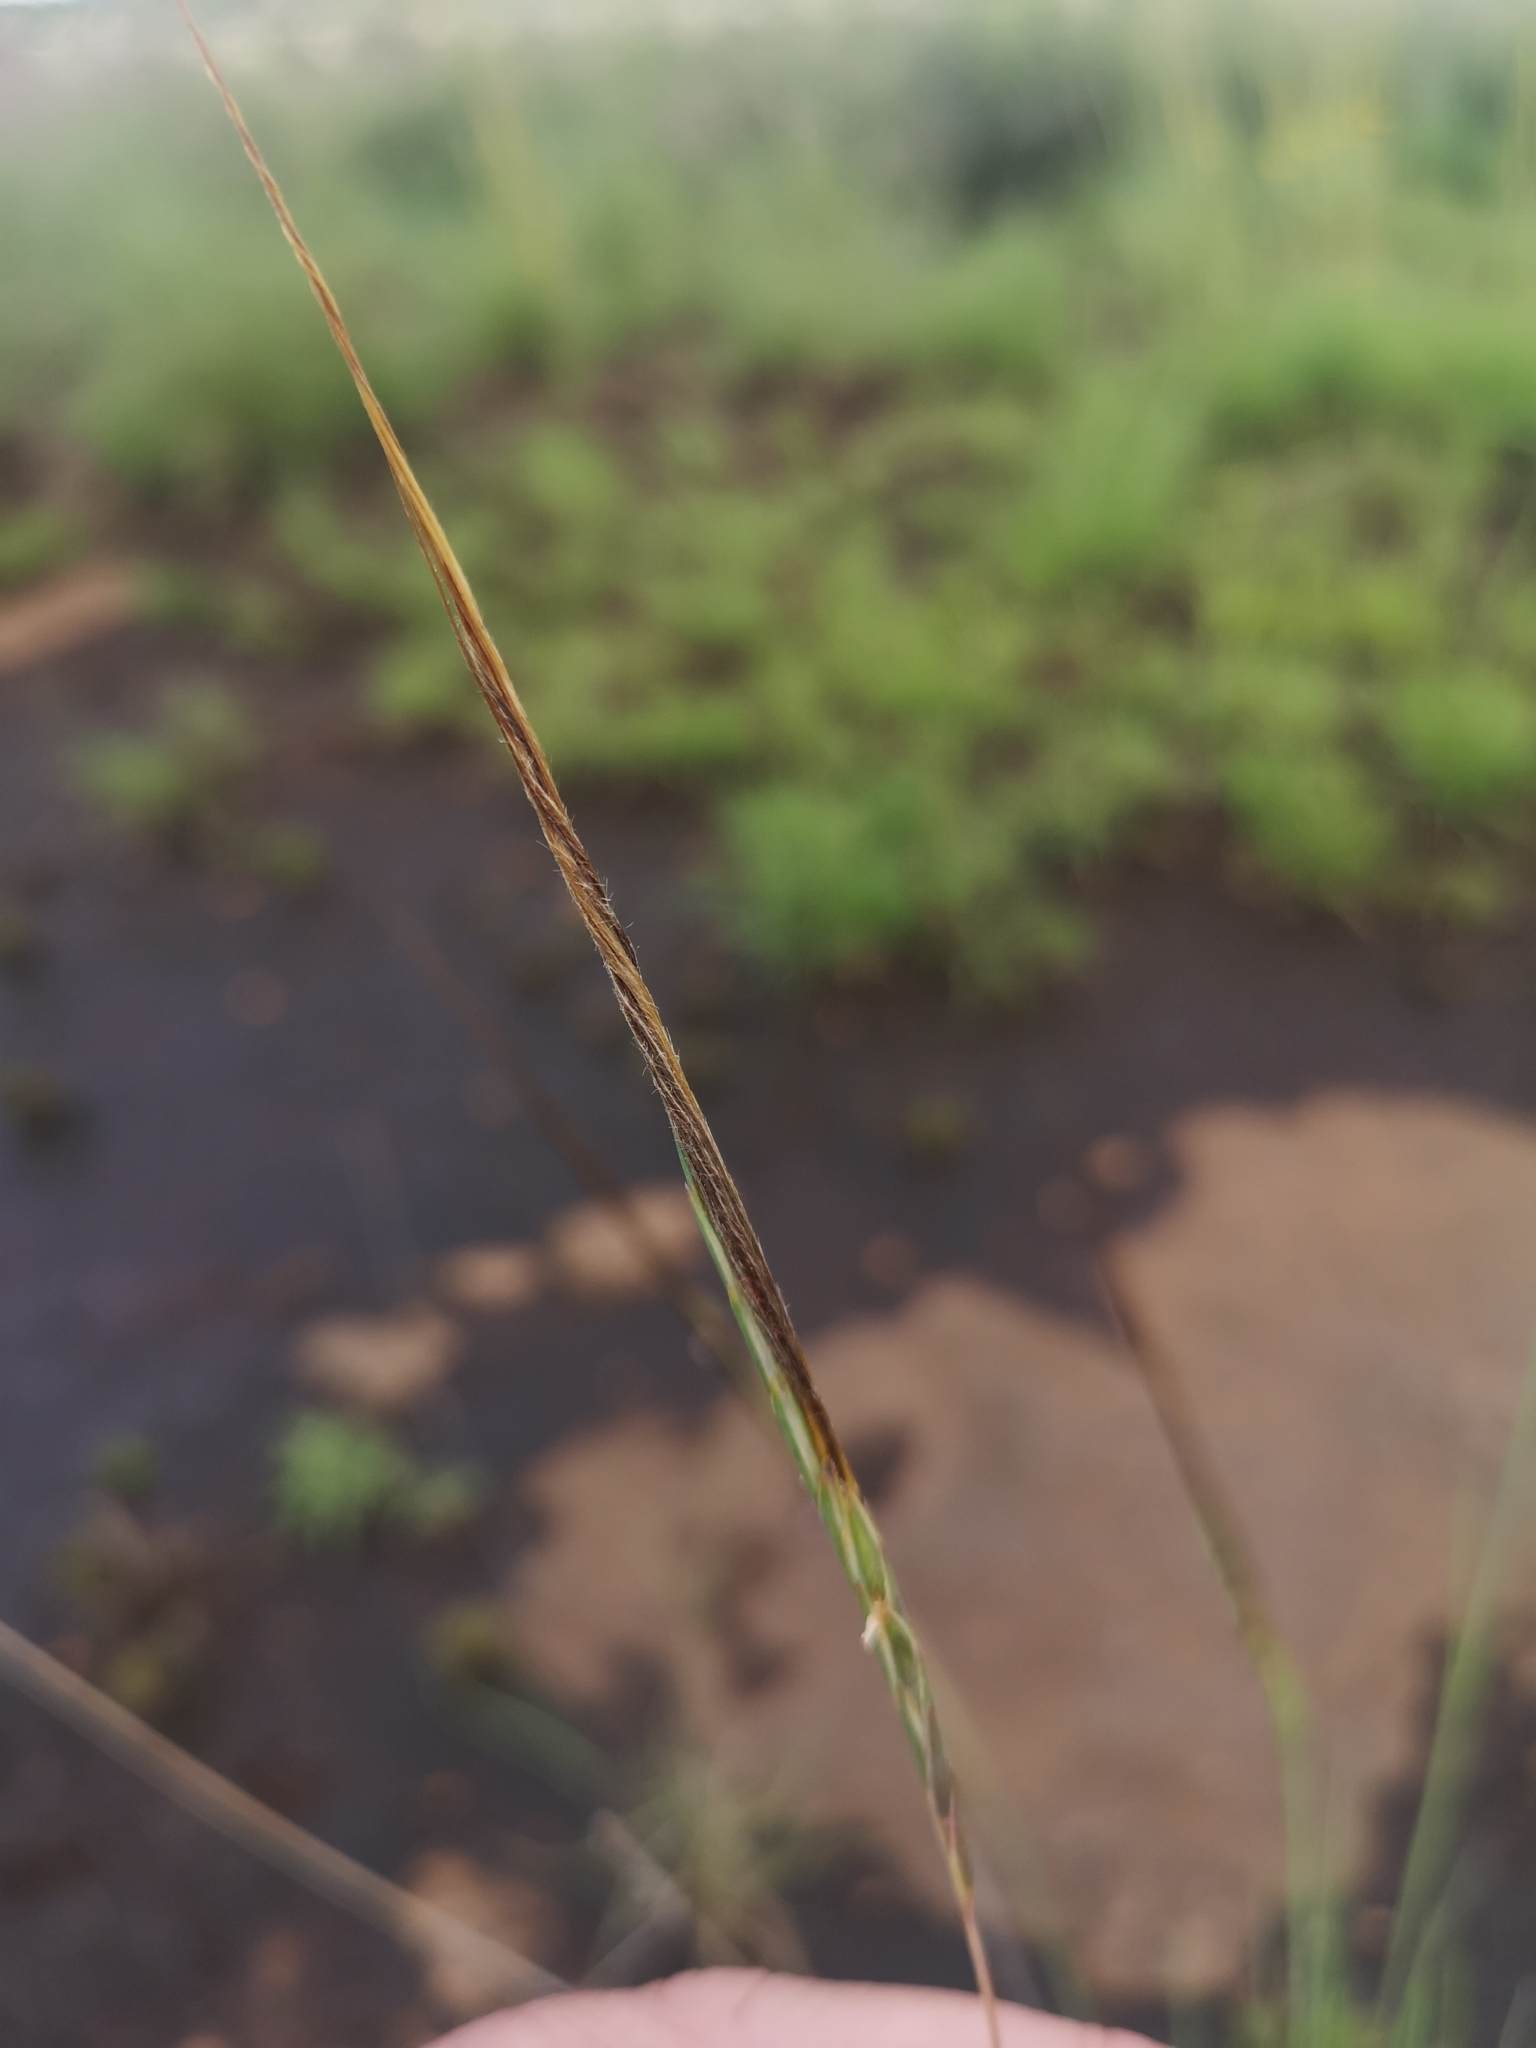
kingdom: Plantae
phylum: Tracheophyta
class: Liliopsida
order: Poales
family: Poaceae
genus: Heteropogon
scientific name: Heteropogon contortus
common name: Tanglehead
